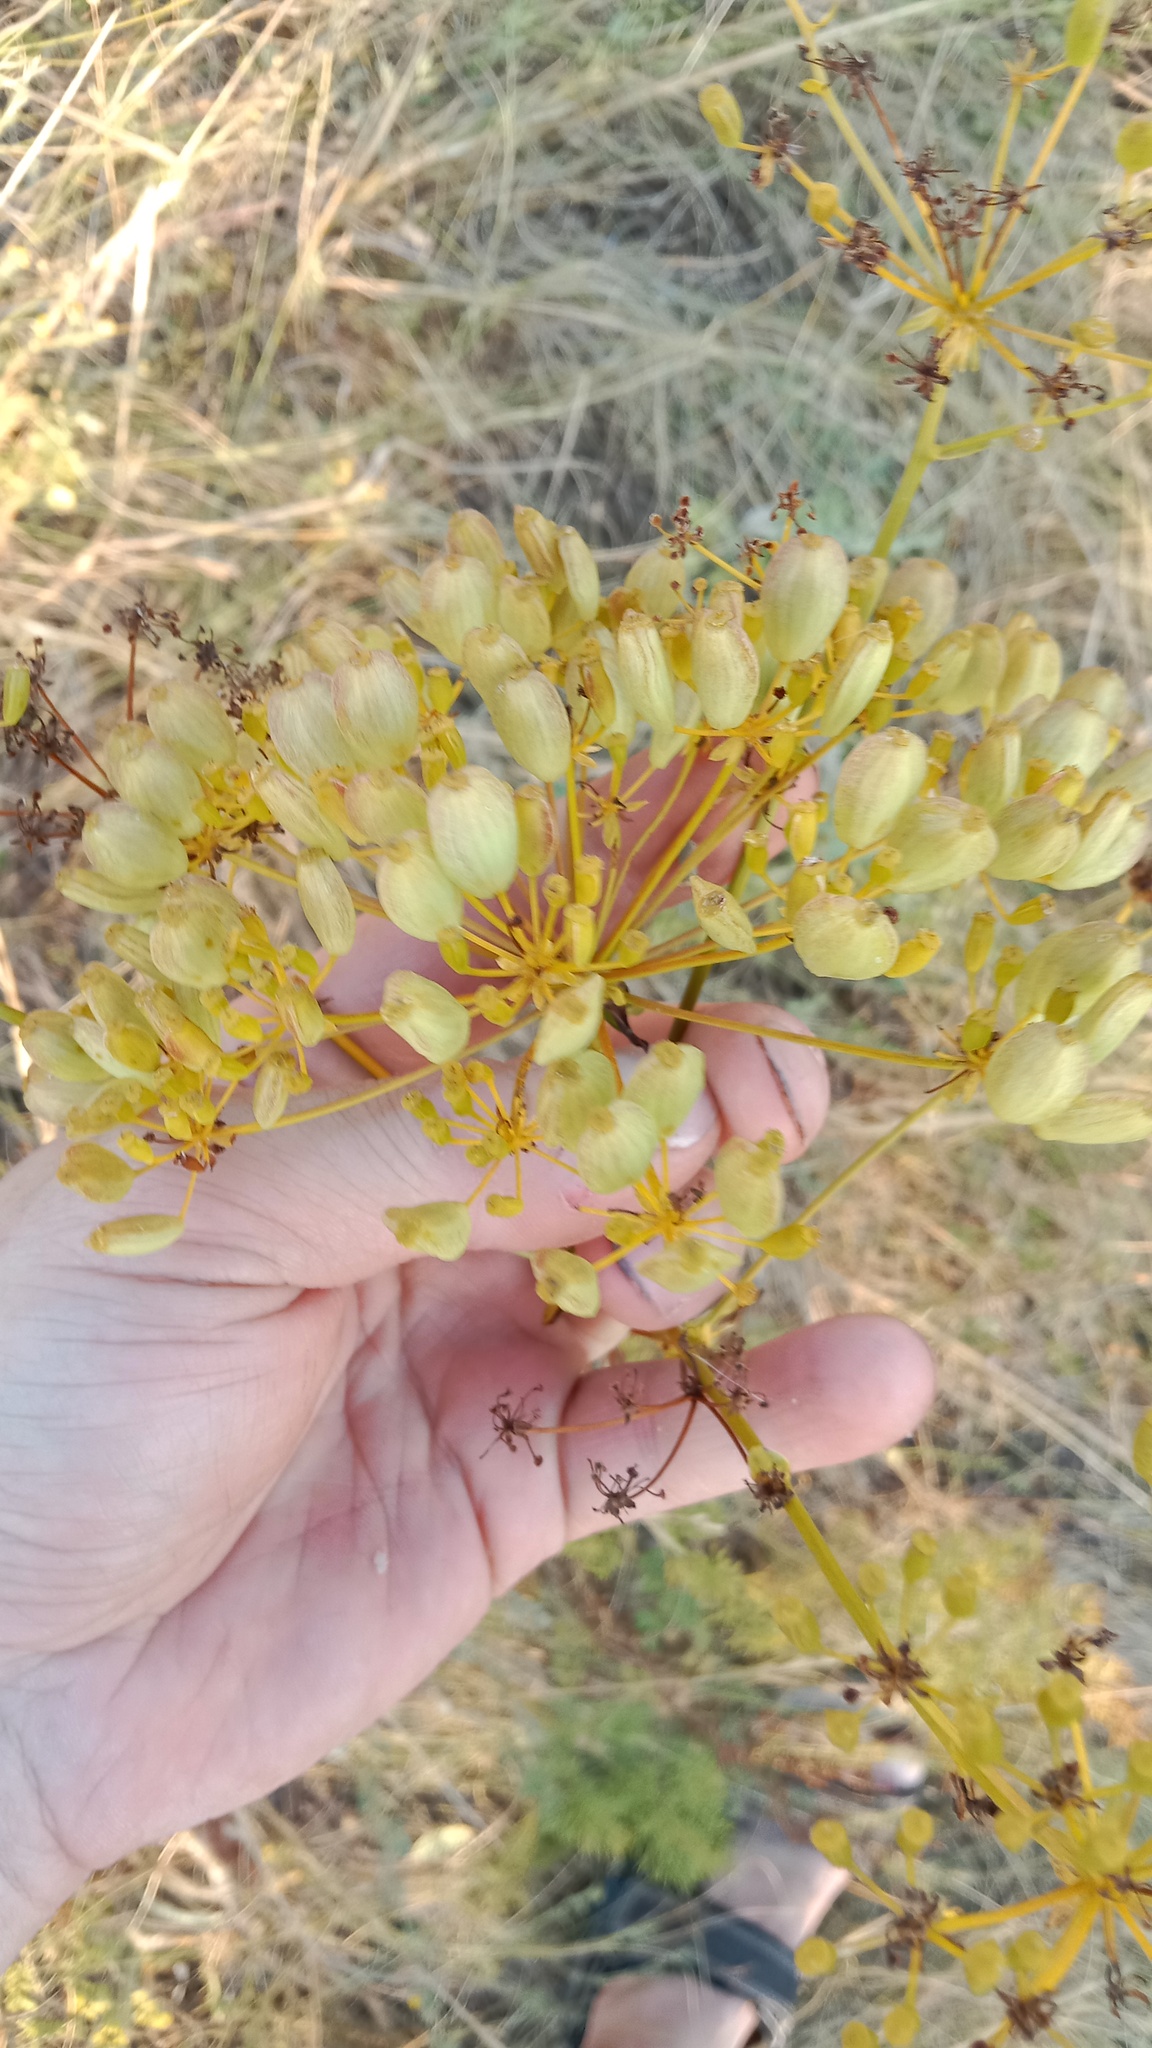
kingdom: Plantae
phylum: Tracheophyta
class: Magnoliopsida
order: Apiales
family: Apiaceae
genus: Ferulago
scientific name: Ferulago galbanifera
